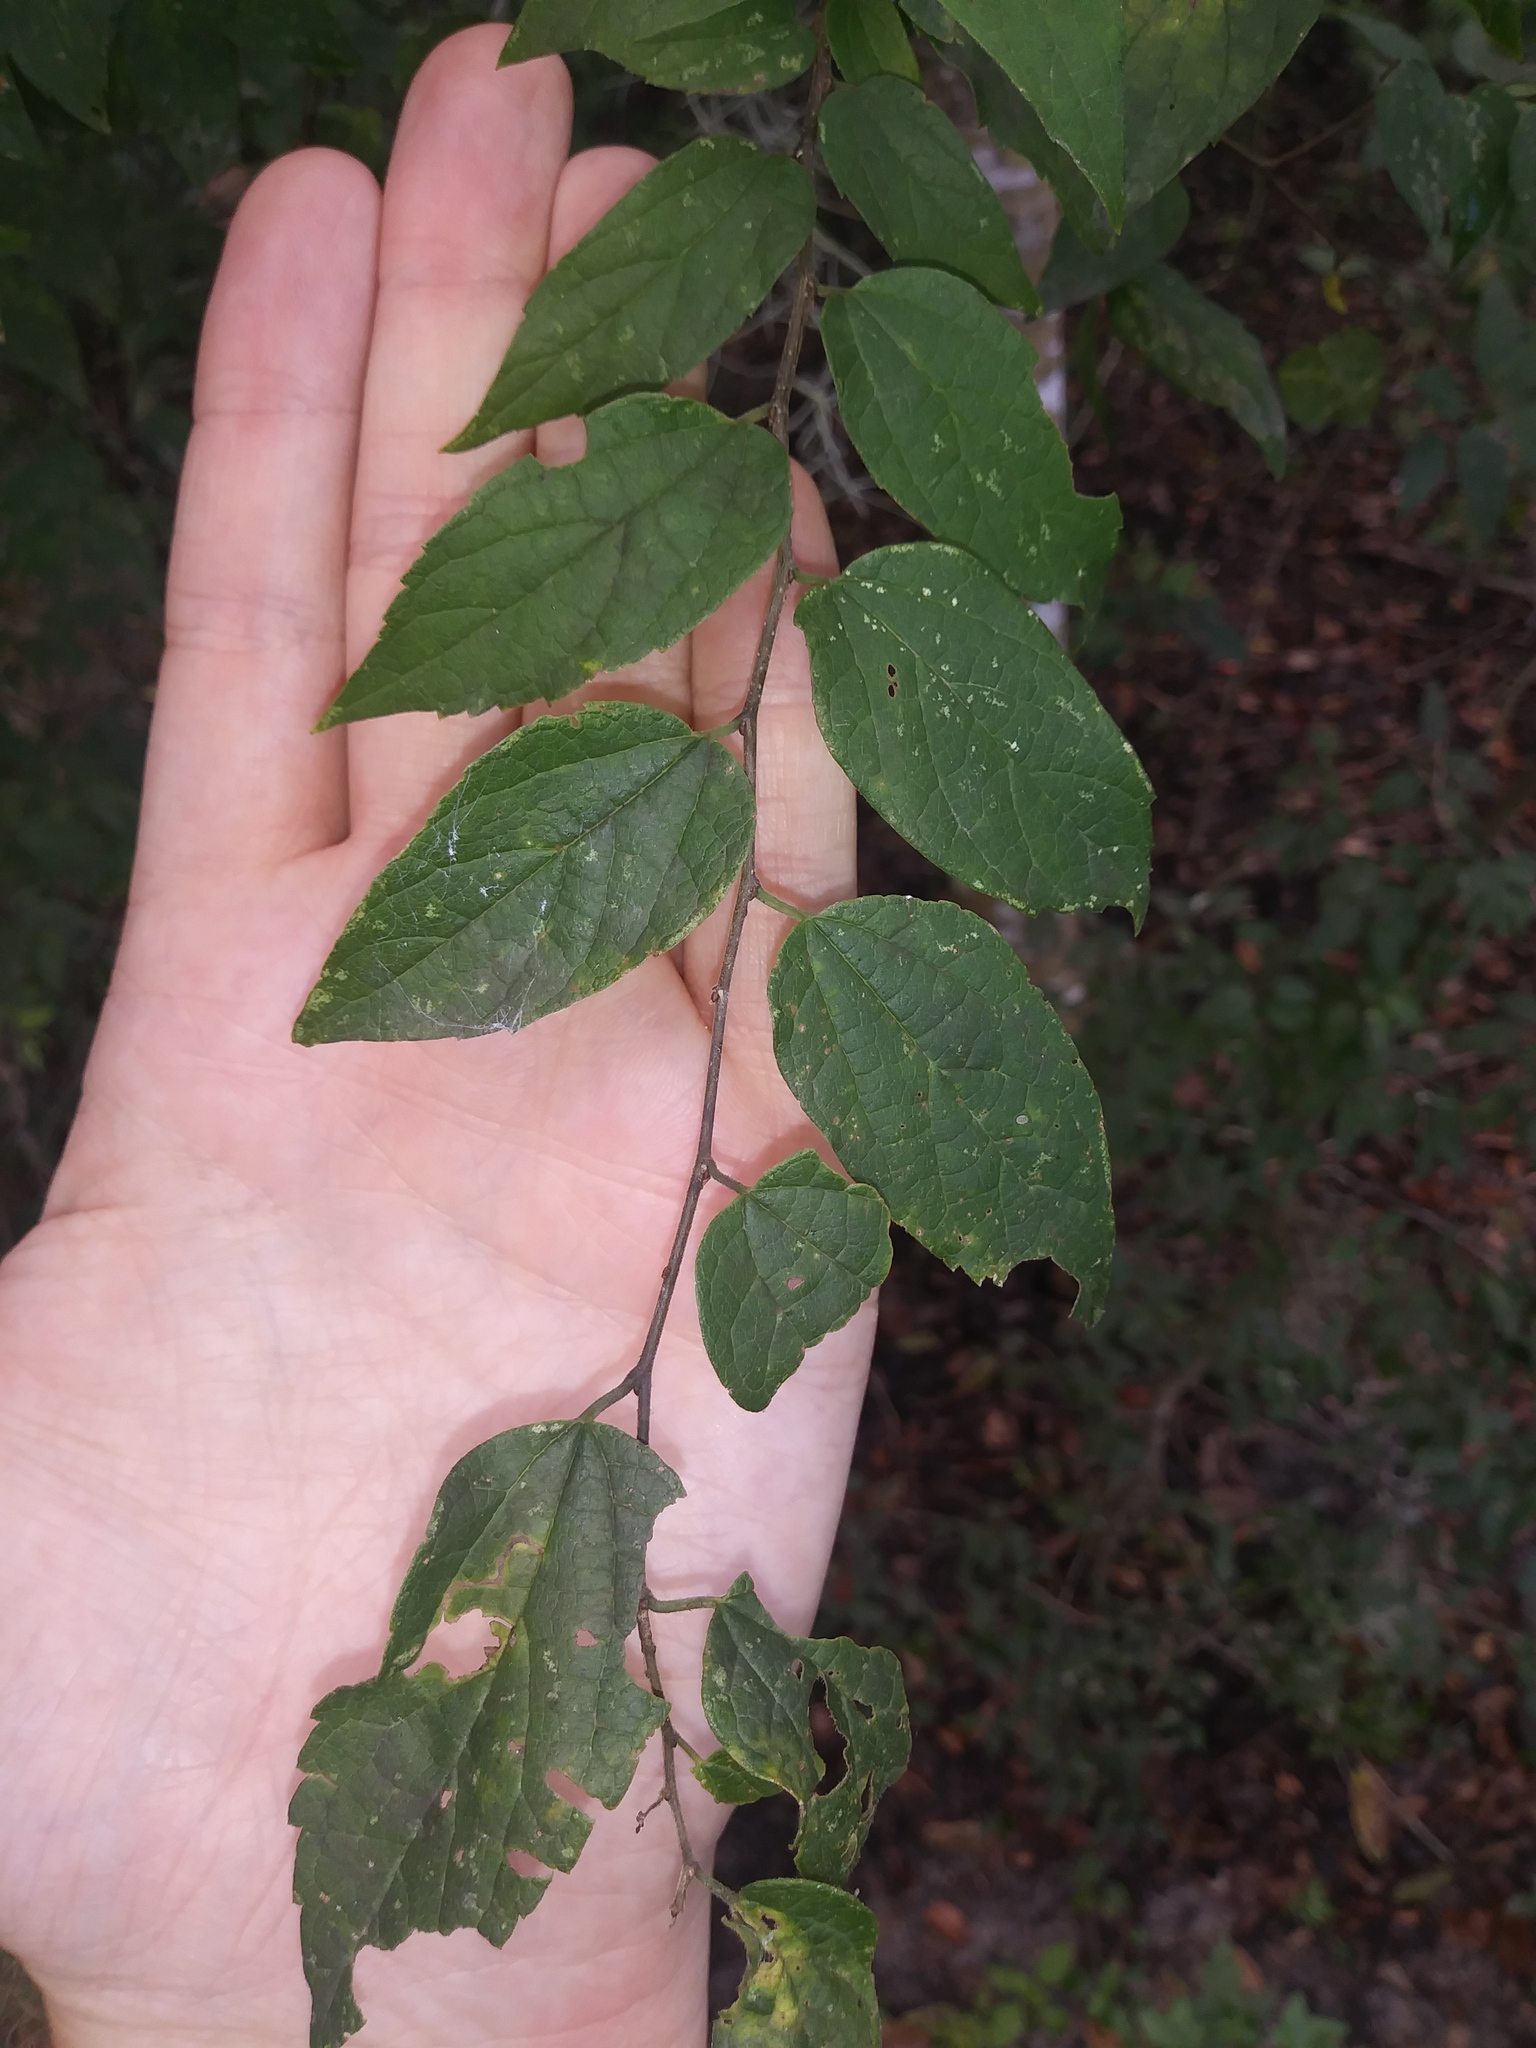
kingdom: Plantae
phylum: Tracheophyta
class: Magnoliopsida
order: Rosales
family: Cannabaceae
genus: Celtis
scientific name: Celtis laevigata
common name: Sugarberry
